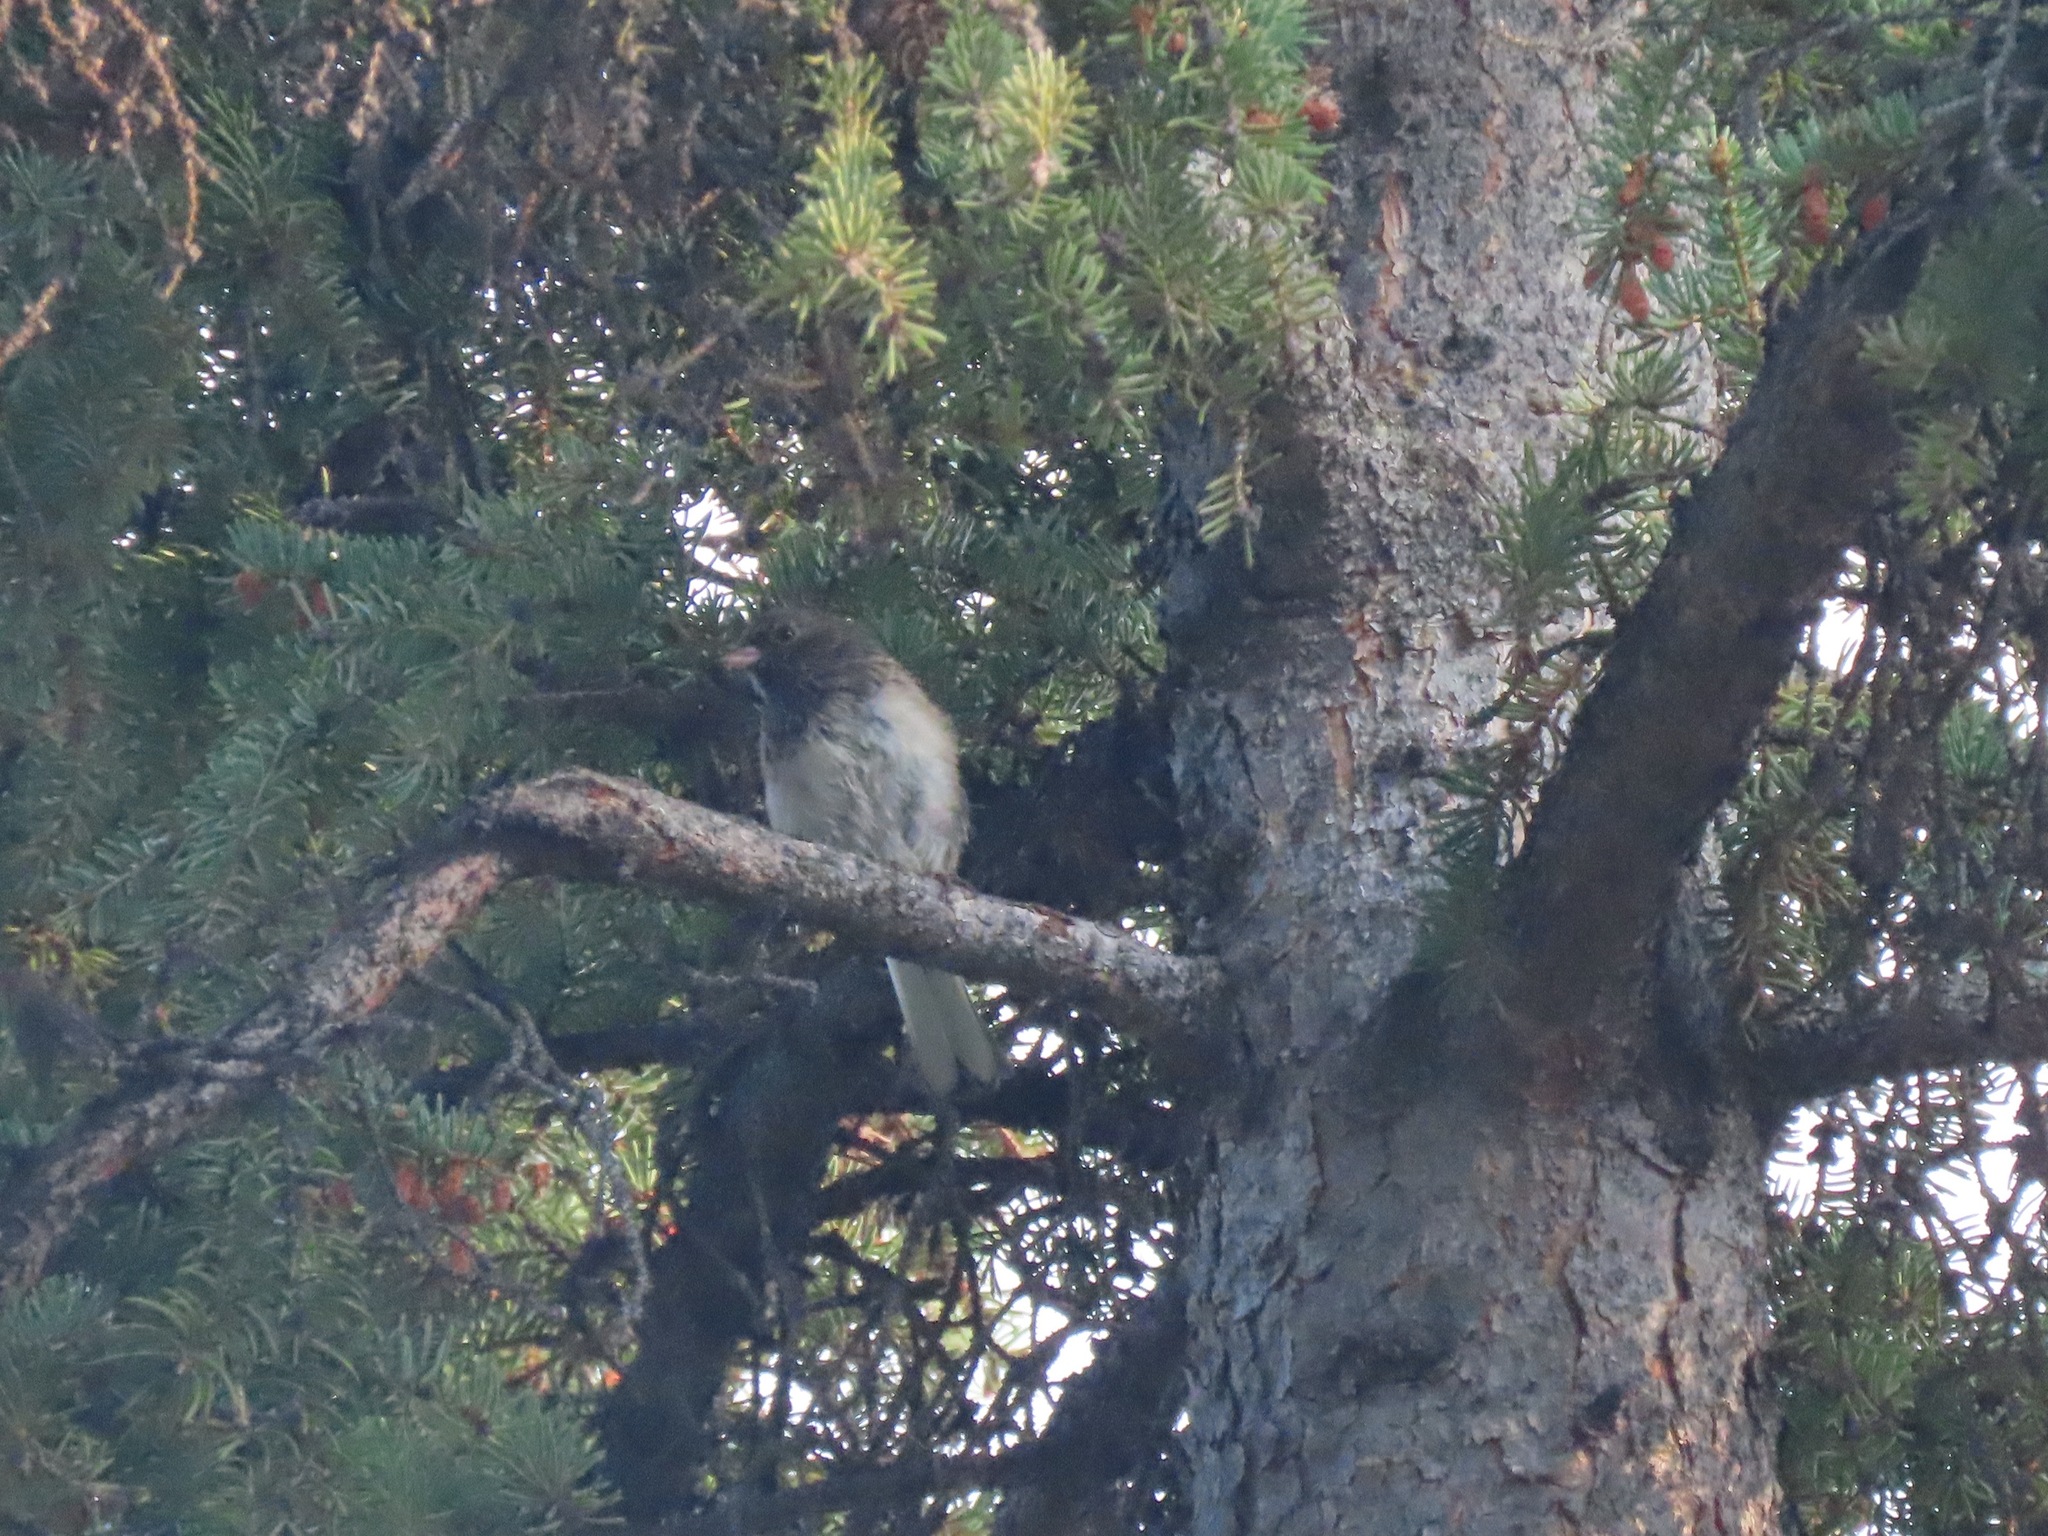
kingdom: Animalia
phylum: Chordata
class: Aves
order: Passeriformes
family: Passerellidae
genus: Junco
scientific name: Junco hyemalis
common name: Dark-eyed junco
